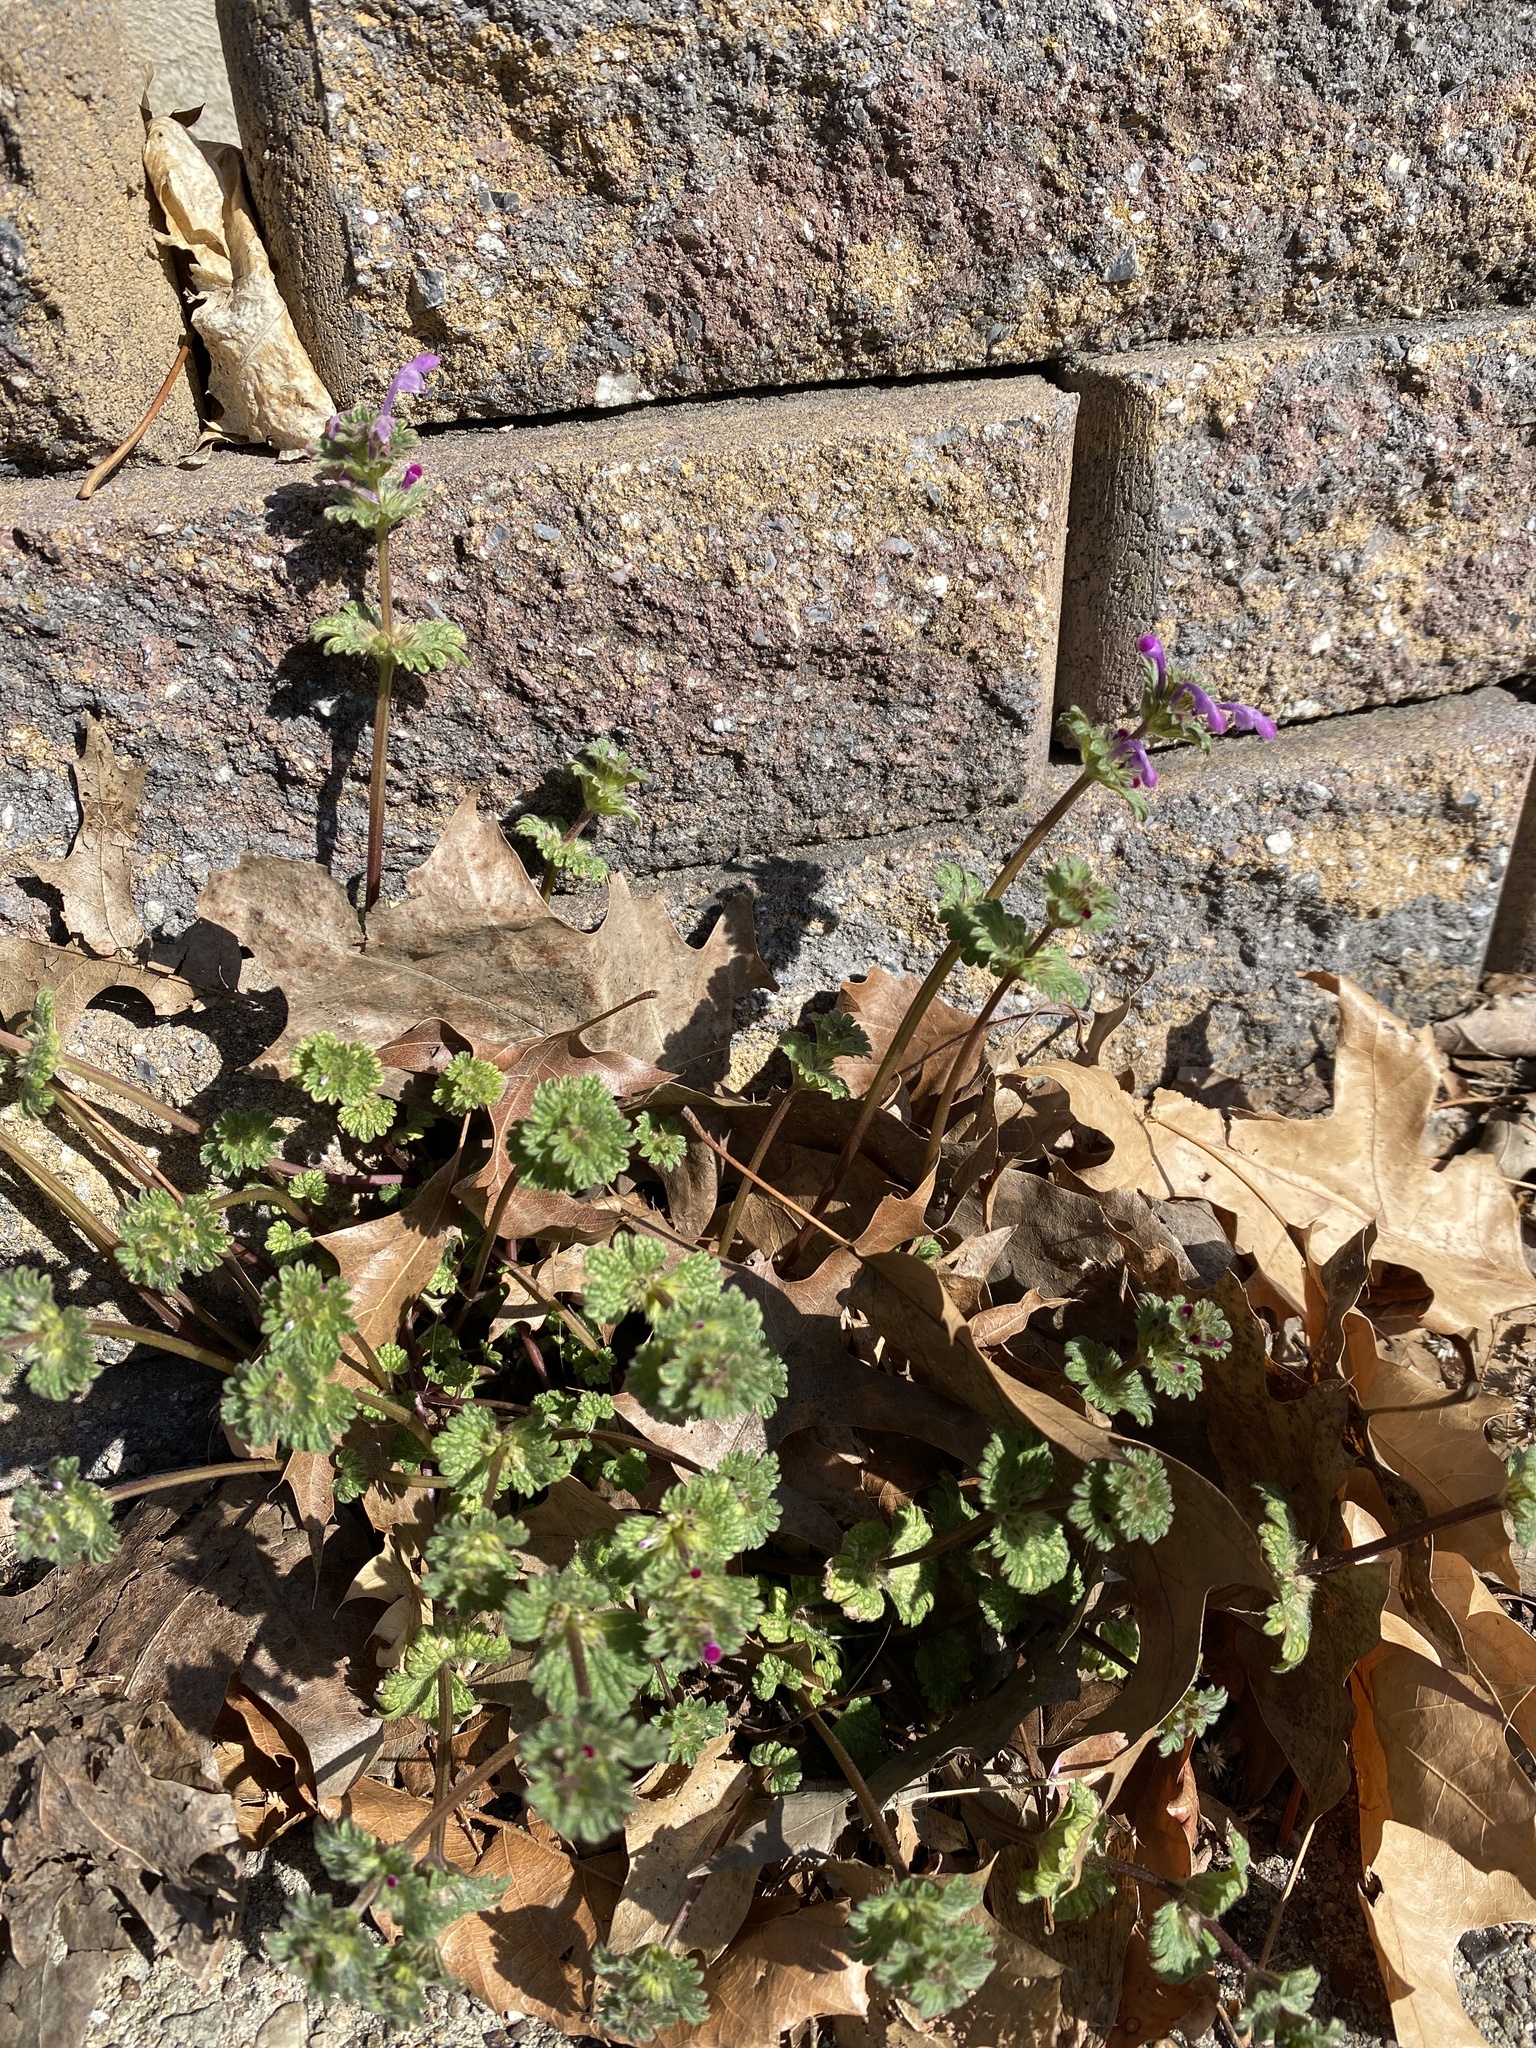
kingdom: Plantae
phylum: Tracheophyta
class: Magnoliopsida
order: Lamiales
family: Lamiaceae
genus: Lamium
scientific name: Lamium amplexicaule
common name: Henbit dead-nettle
